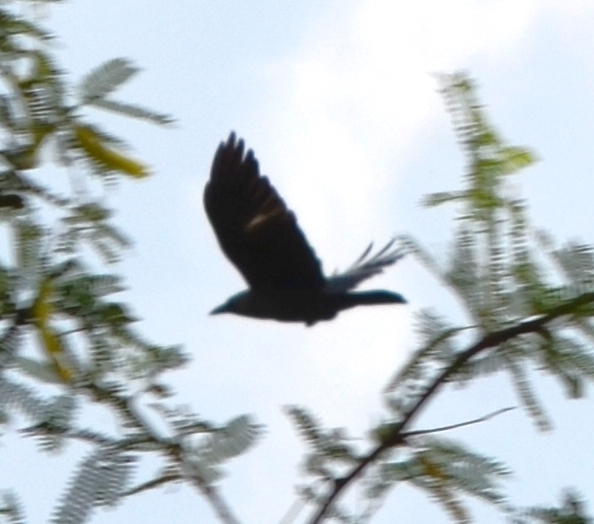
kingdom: Animalia
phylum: Chordata
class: Aves
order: Passeriformes
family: Corvidae
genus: Corvus
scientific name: Corvus splendens
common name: House crow
